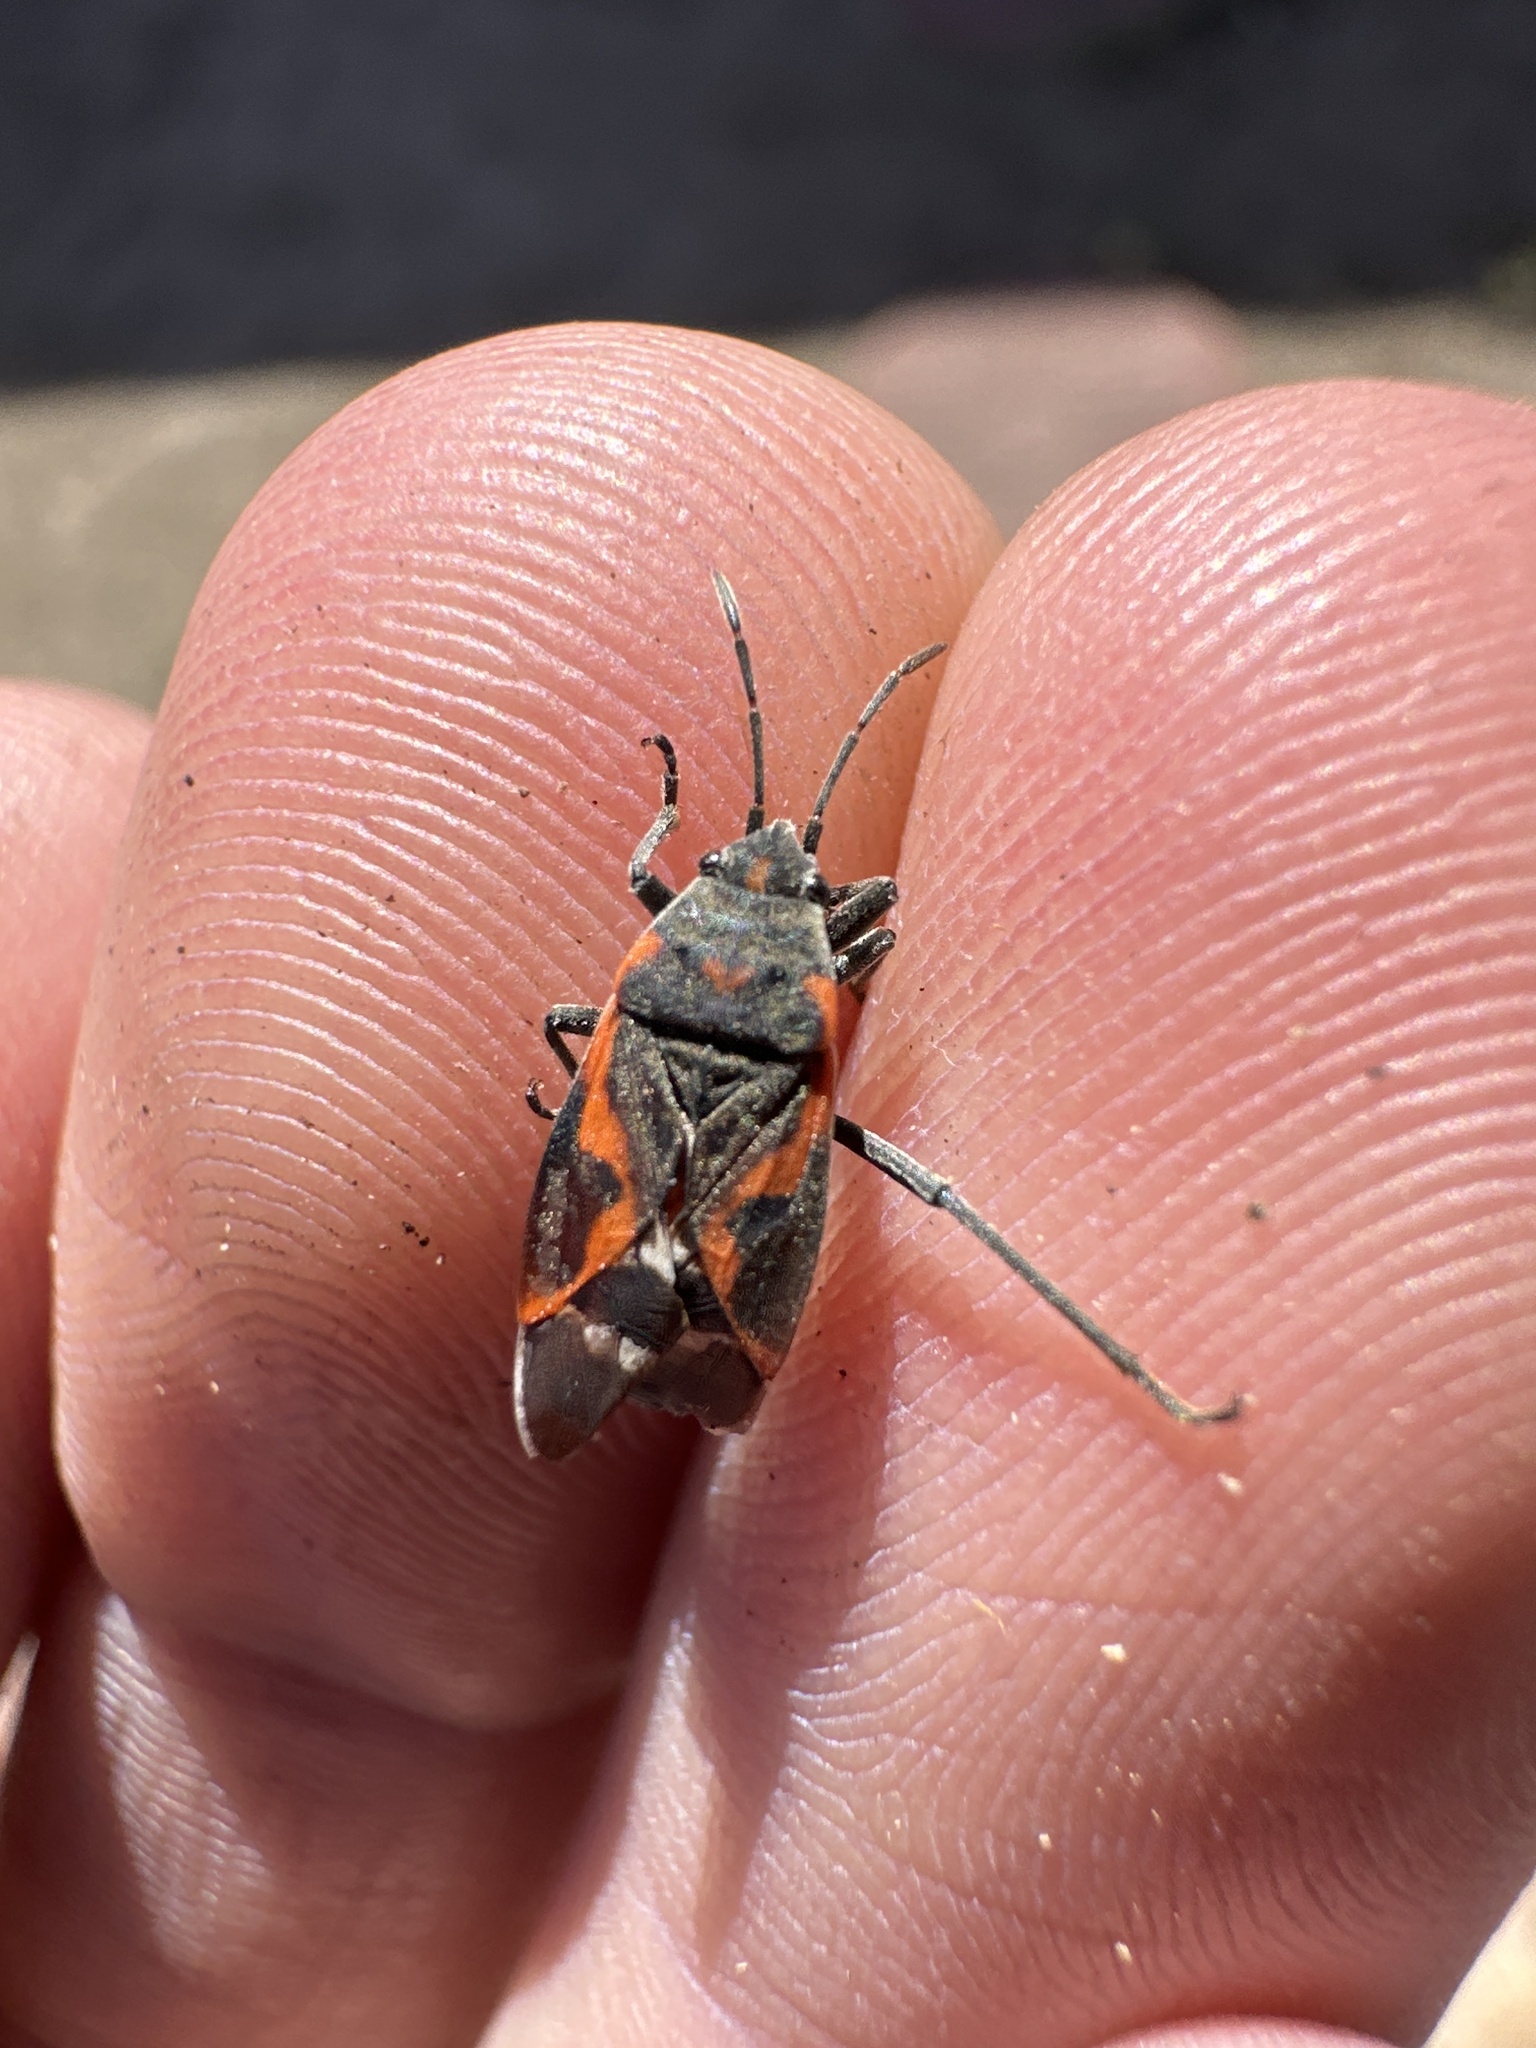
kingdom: Animalia
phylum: Arthropoda
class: Insecta
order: Hemiptera
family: Lygaeidae
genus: Lygaeus
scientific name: Lygaeus kalmii
